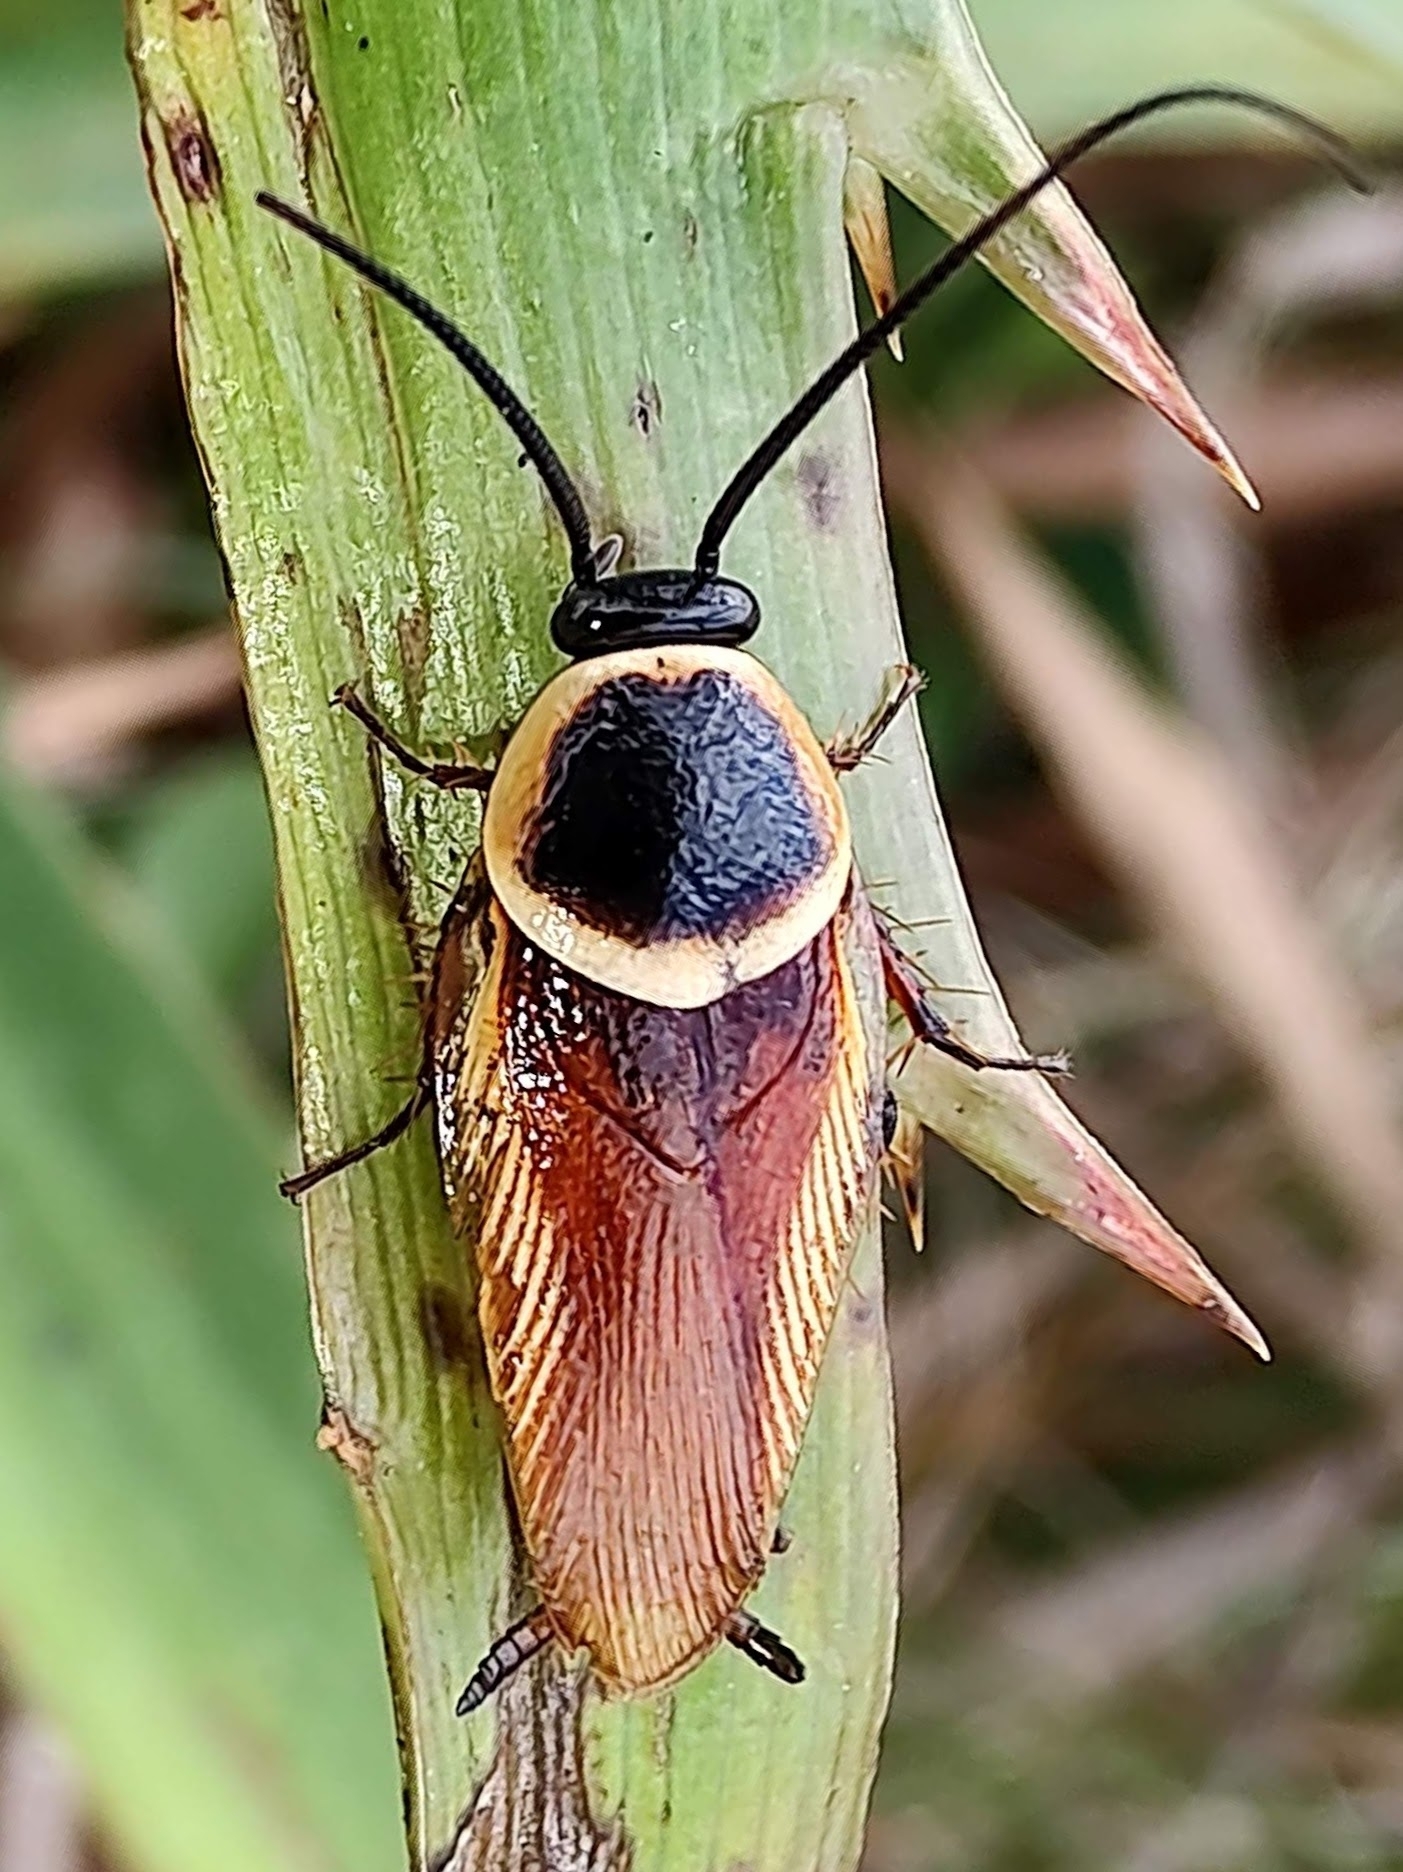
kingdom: Animalia
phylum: Arthropoda
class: Insecta
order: Blattodea
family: Ectobiidae
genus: Pseudomops
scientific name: Pseudomops neglectus
